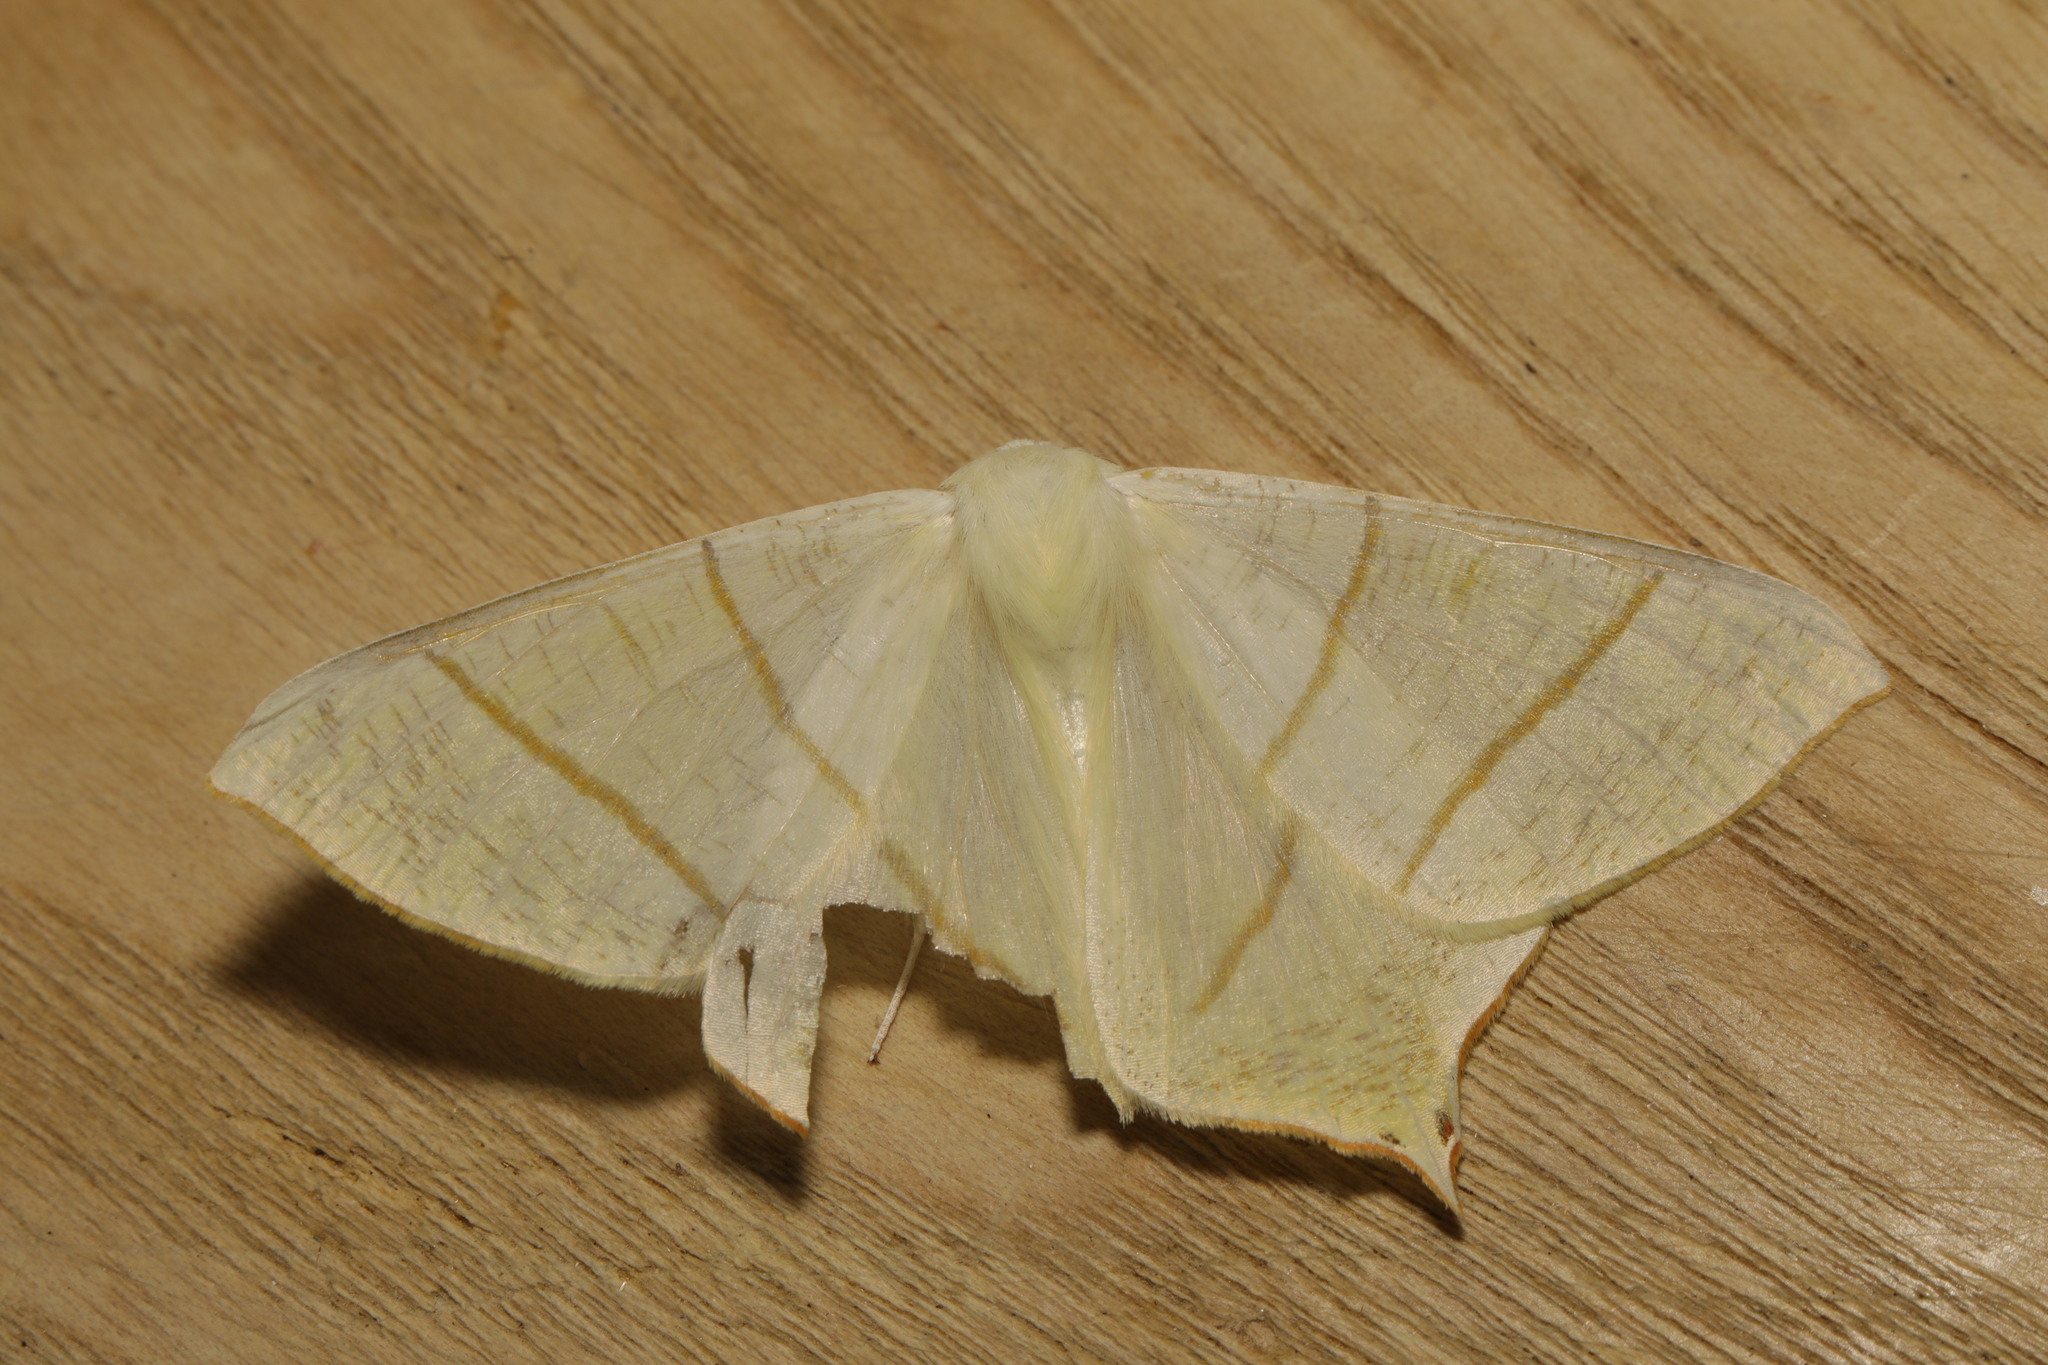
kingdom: Animalia
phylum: Arthropoda
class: Insecta
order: Lepidoptera
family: Geometridae
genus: Ourapteryx
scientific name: Ourapteryx sambucaria
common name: Swallow-tailed moth
